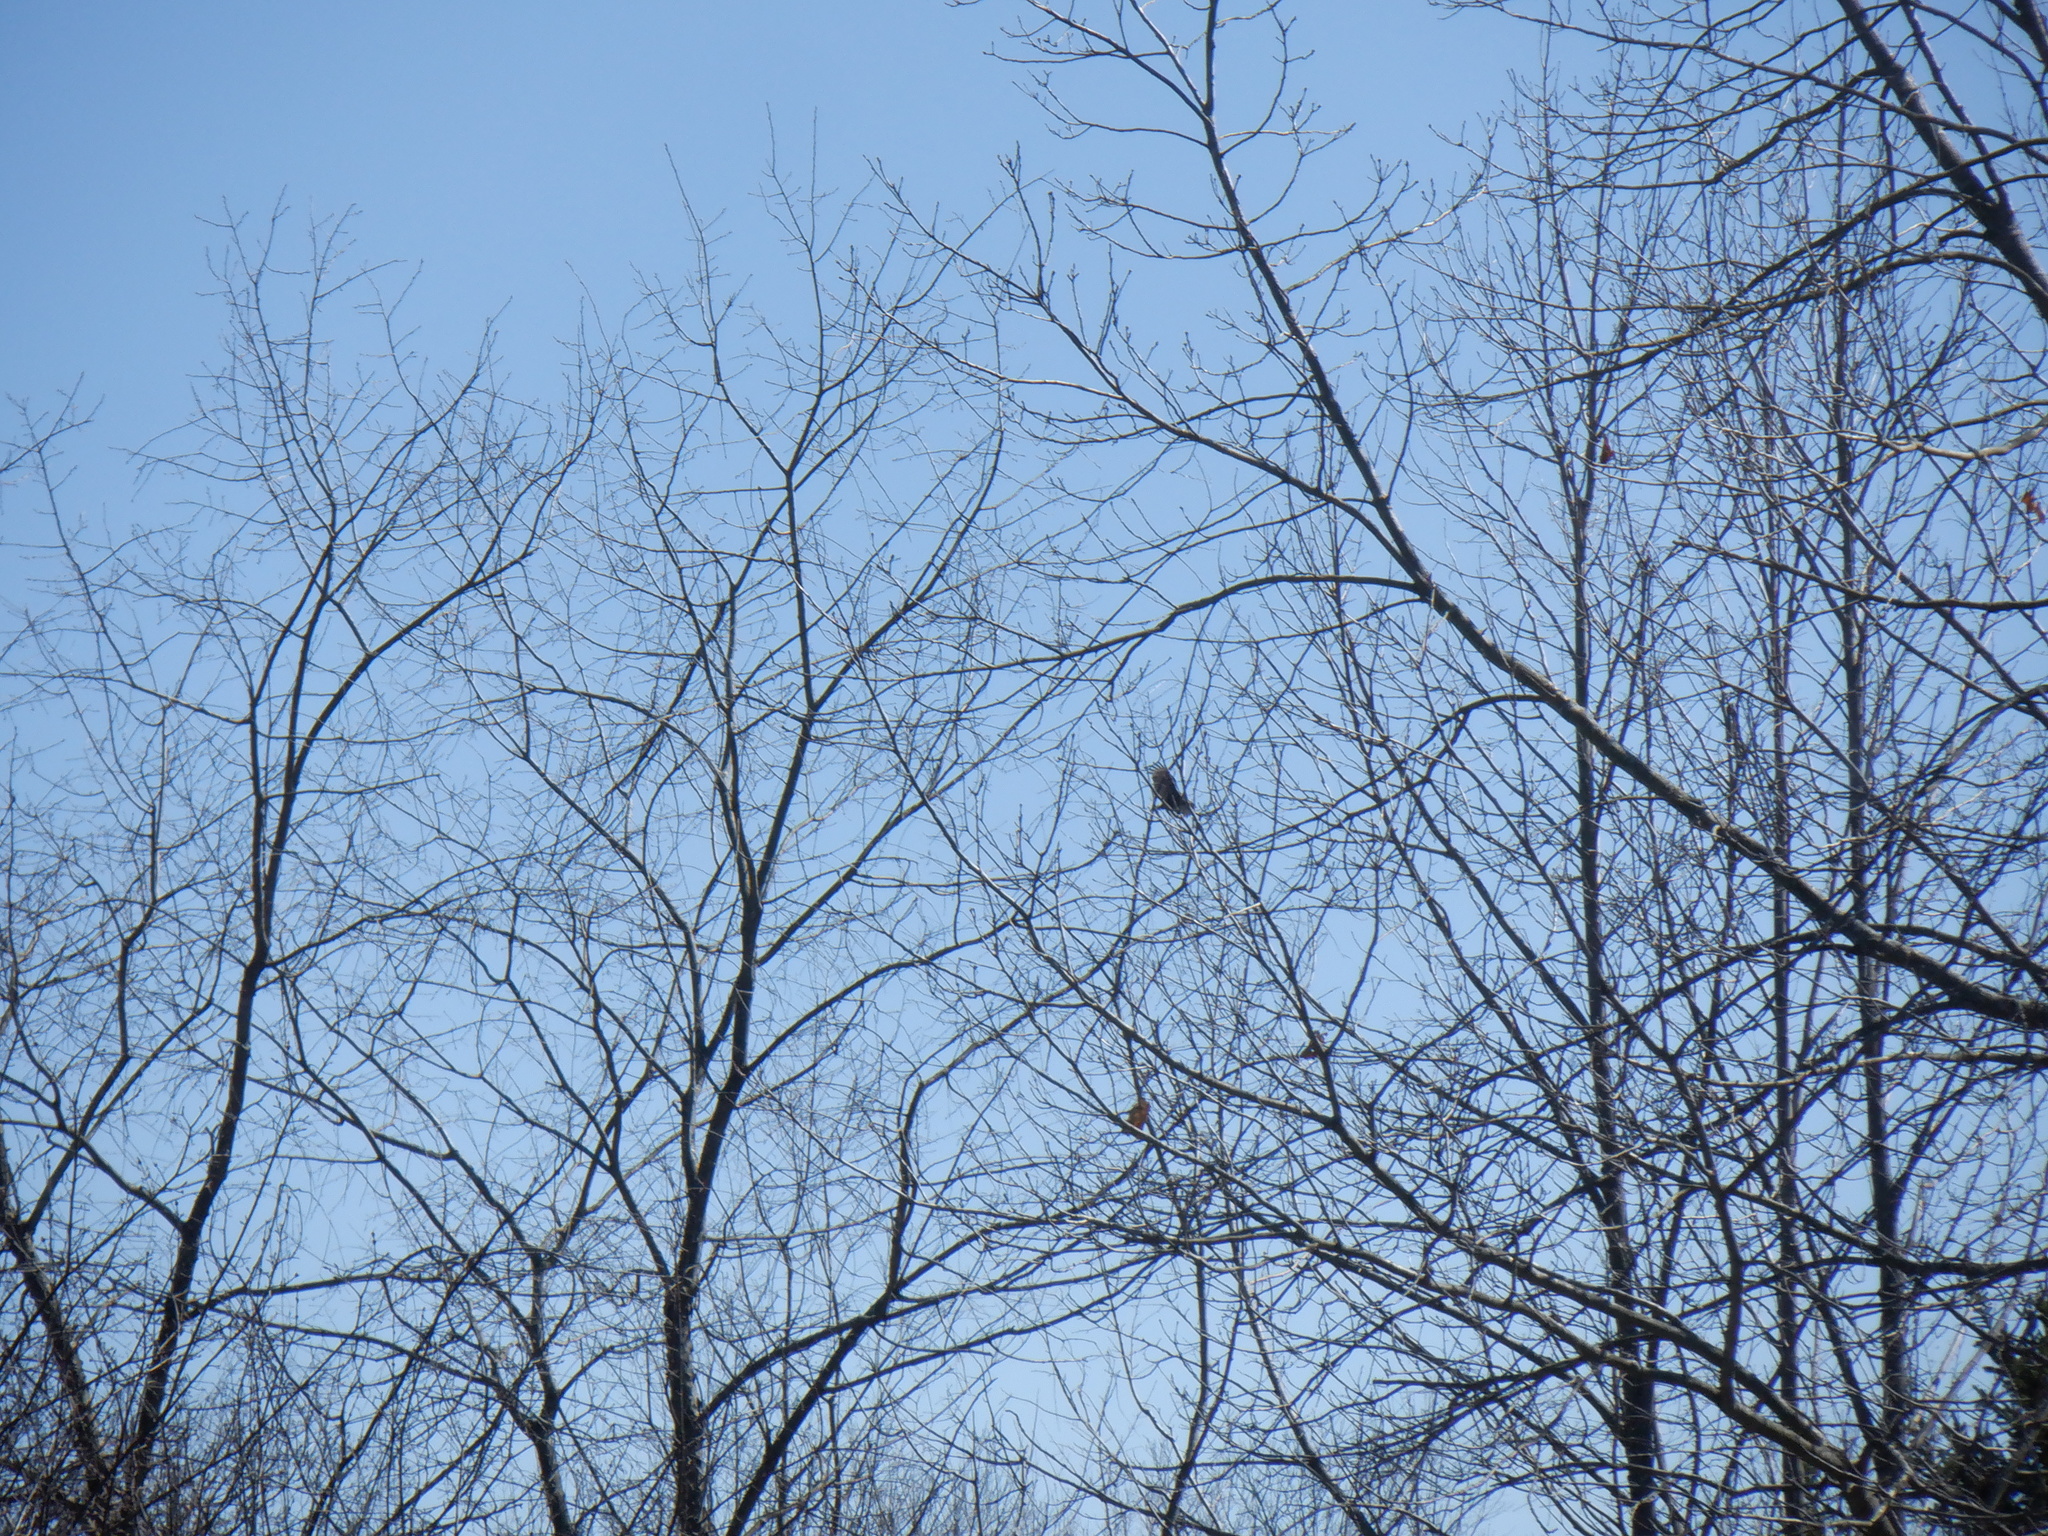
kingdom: Animalia
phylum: Chordata
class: Aves
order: Accipitriformes
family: Cathartidae
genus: Cathartes
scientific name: Cathartes aura
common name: Turkey vulture
